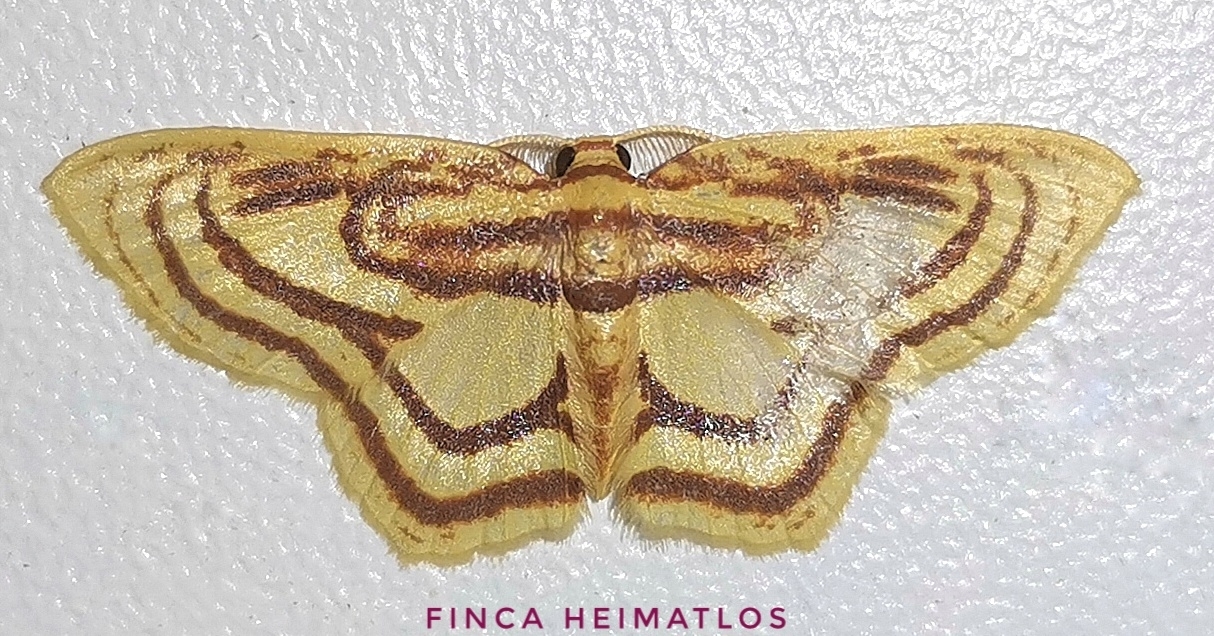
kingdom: Animalia
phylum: Arthropoda
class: Insecta
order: Lepidoptera
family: Geometridae
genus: Eois
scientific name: Eois isographata
